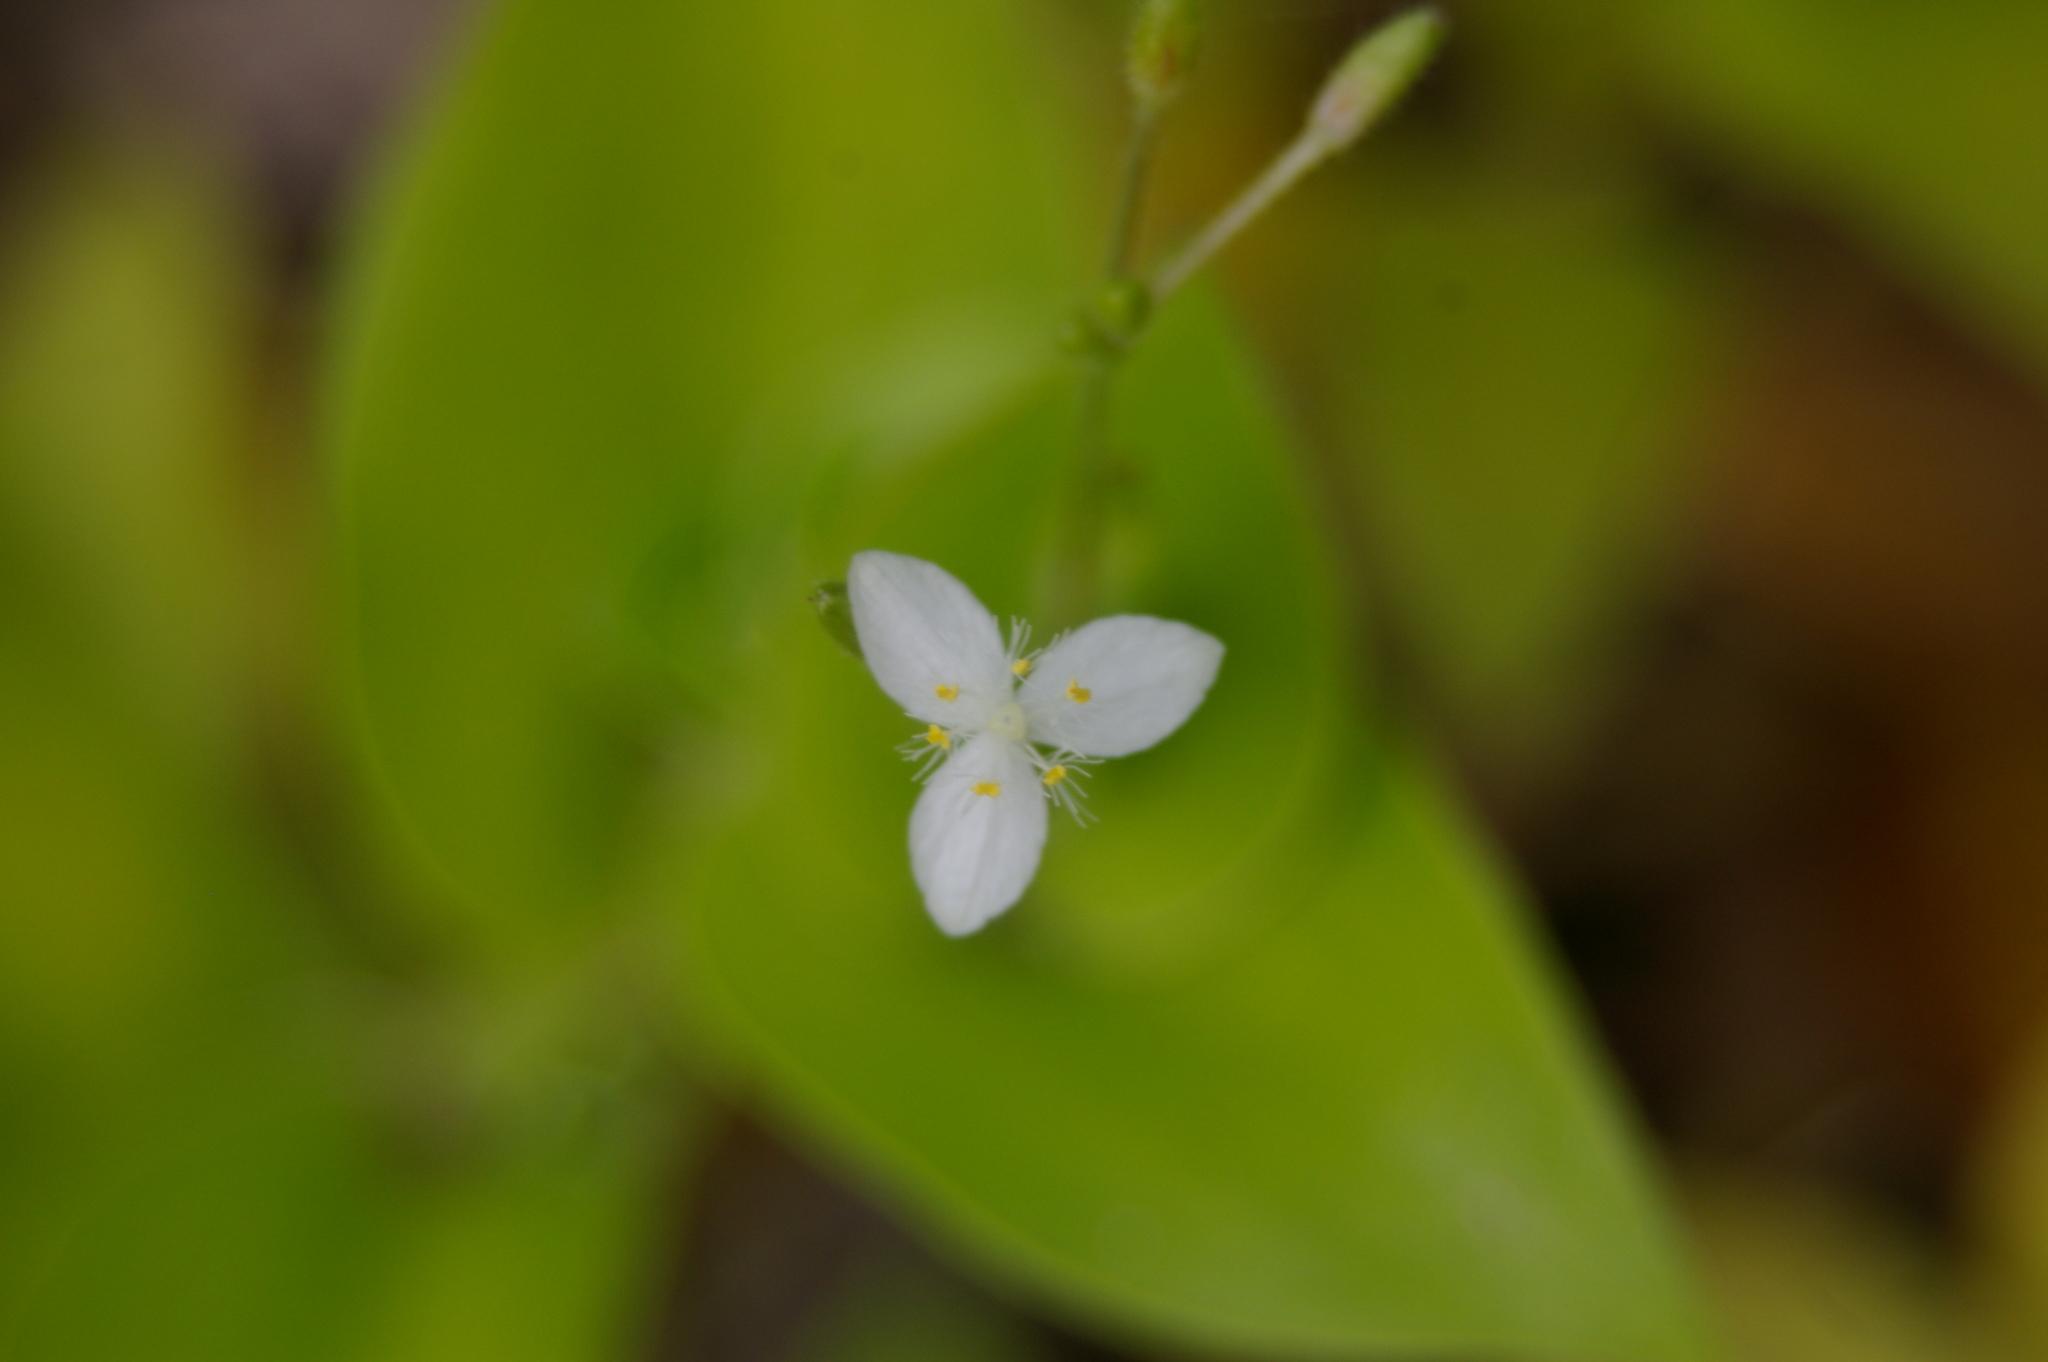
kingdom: Plantae
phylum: Tracheophyta
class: Liliopsida
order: Commelinales
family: Commelinaceae
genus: Gibasis
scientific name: Gibasis geniculata
